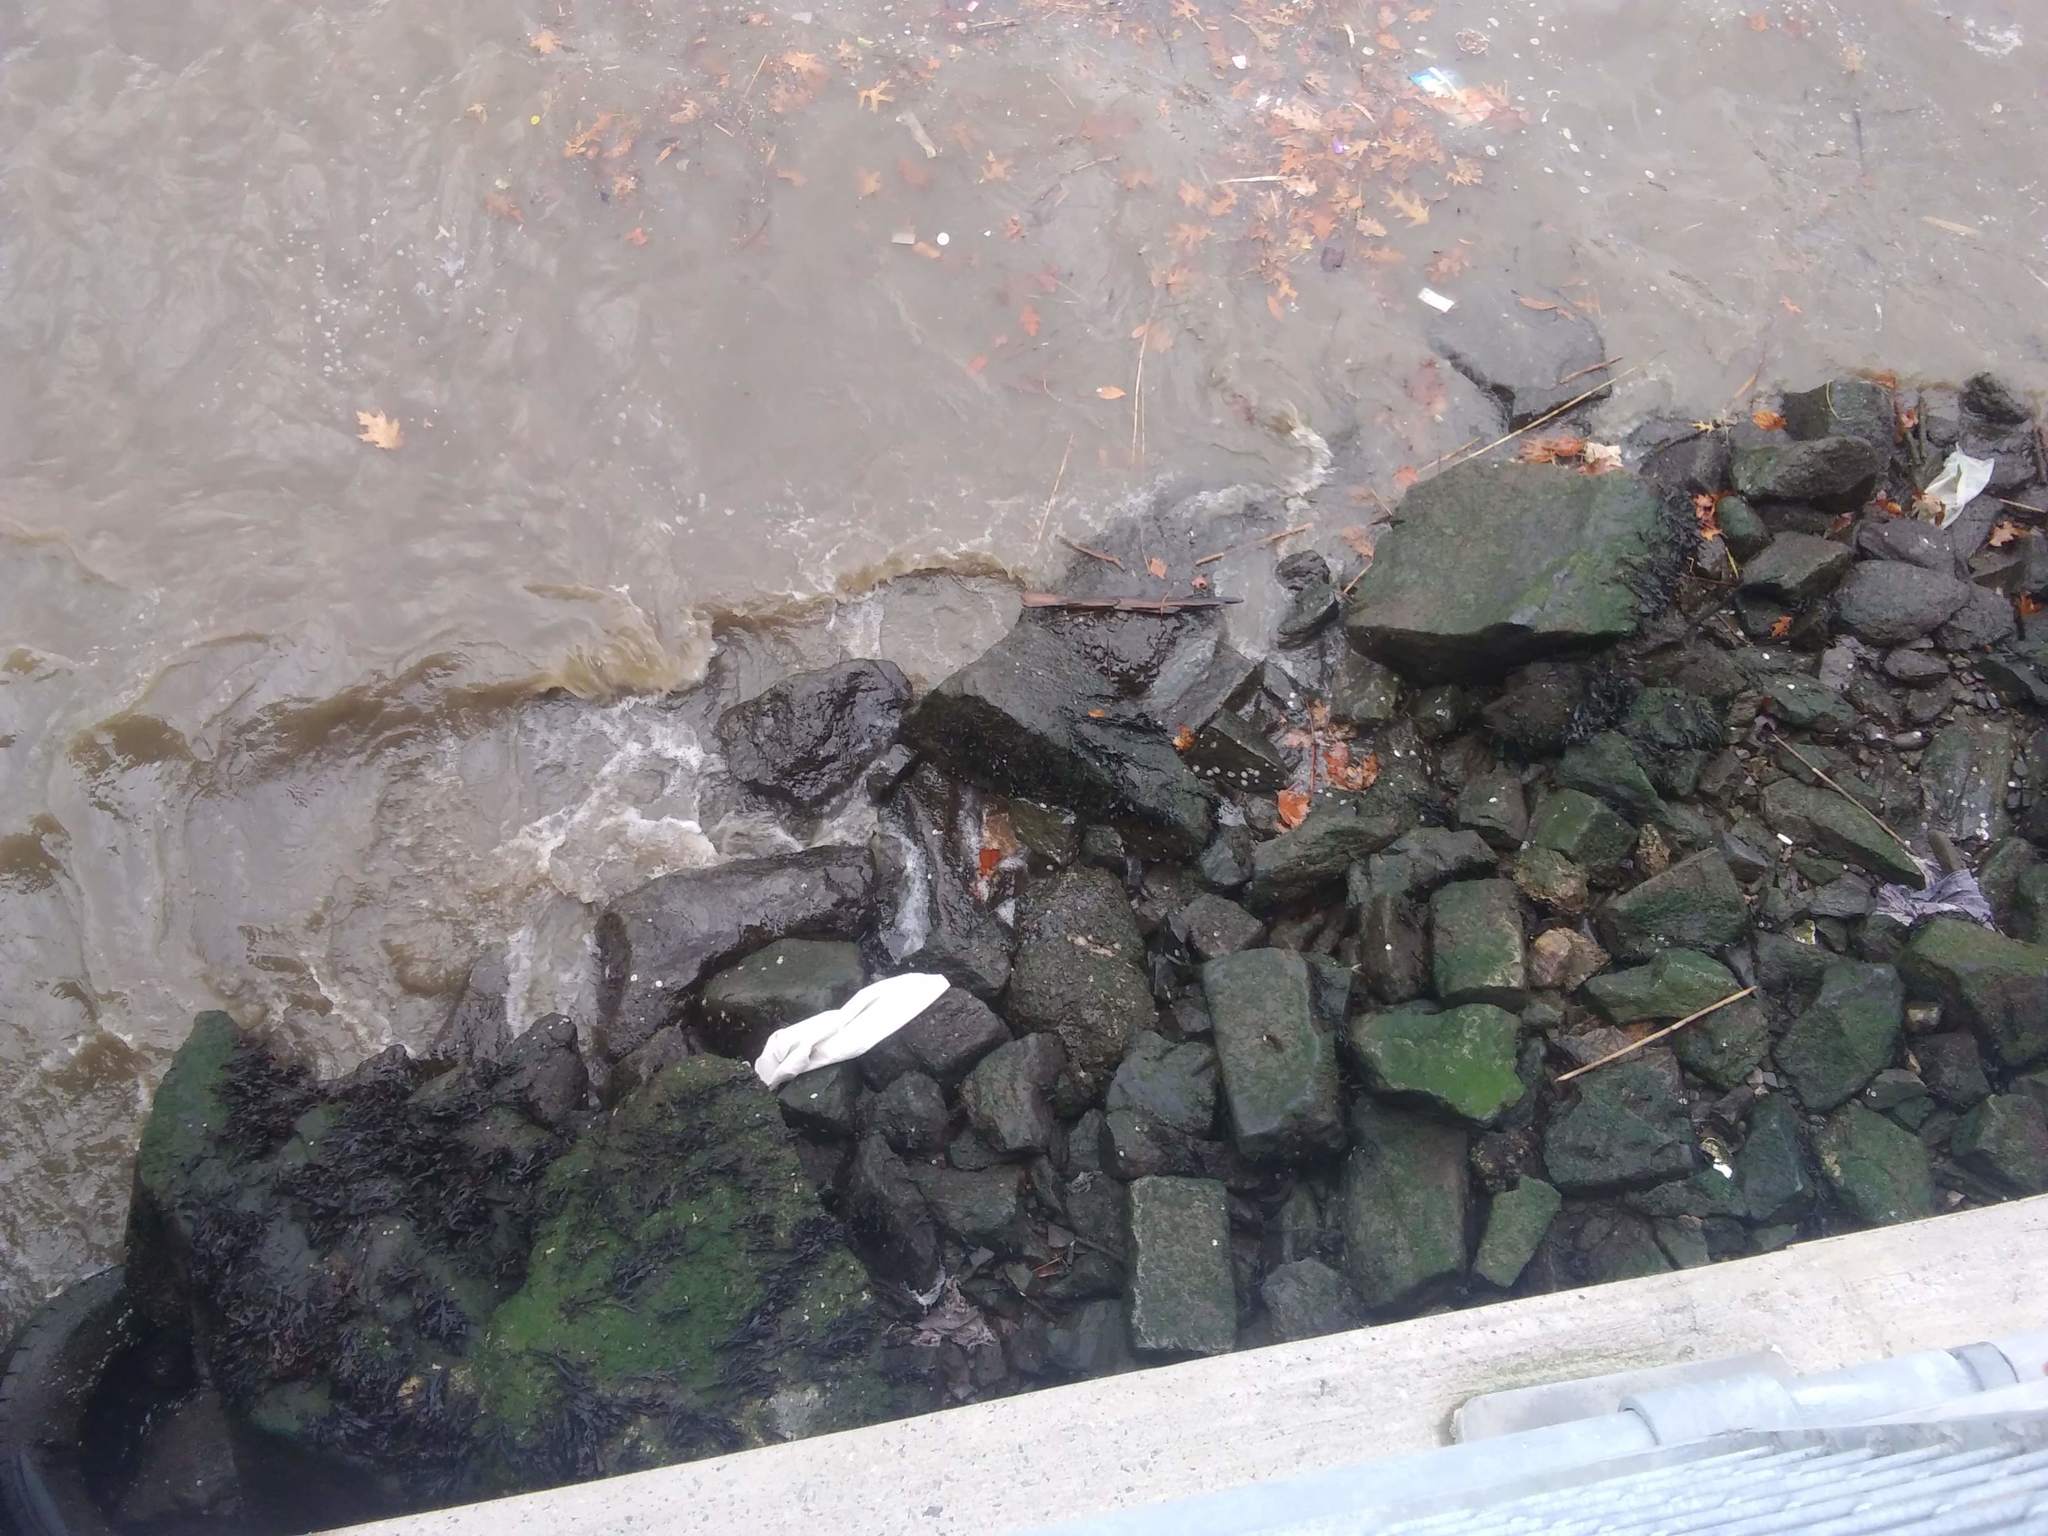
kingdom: Animalia
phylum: Mollusca
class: Bivalvia
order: Ostreida
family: Ostreidae
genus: Crassostrea
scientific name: Crassostrea virginica
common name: American oyster
